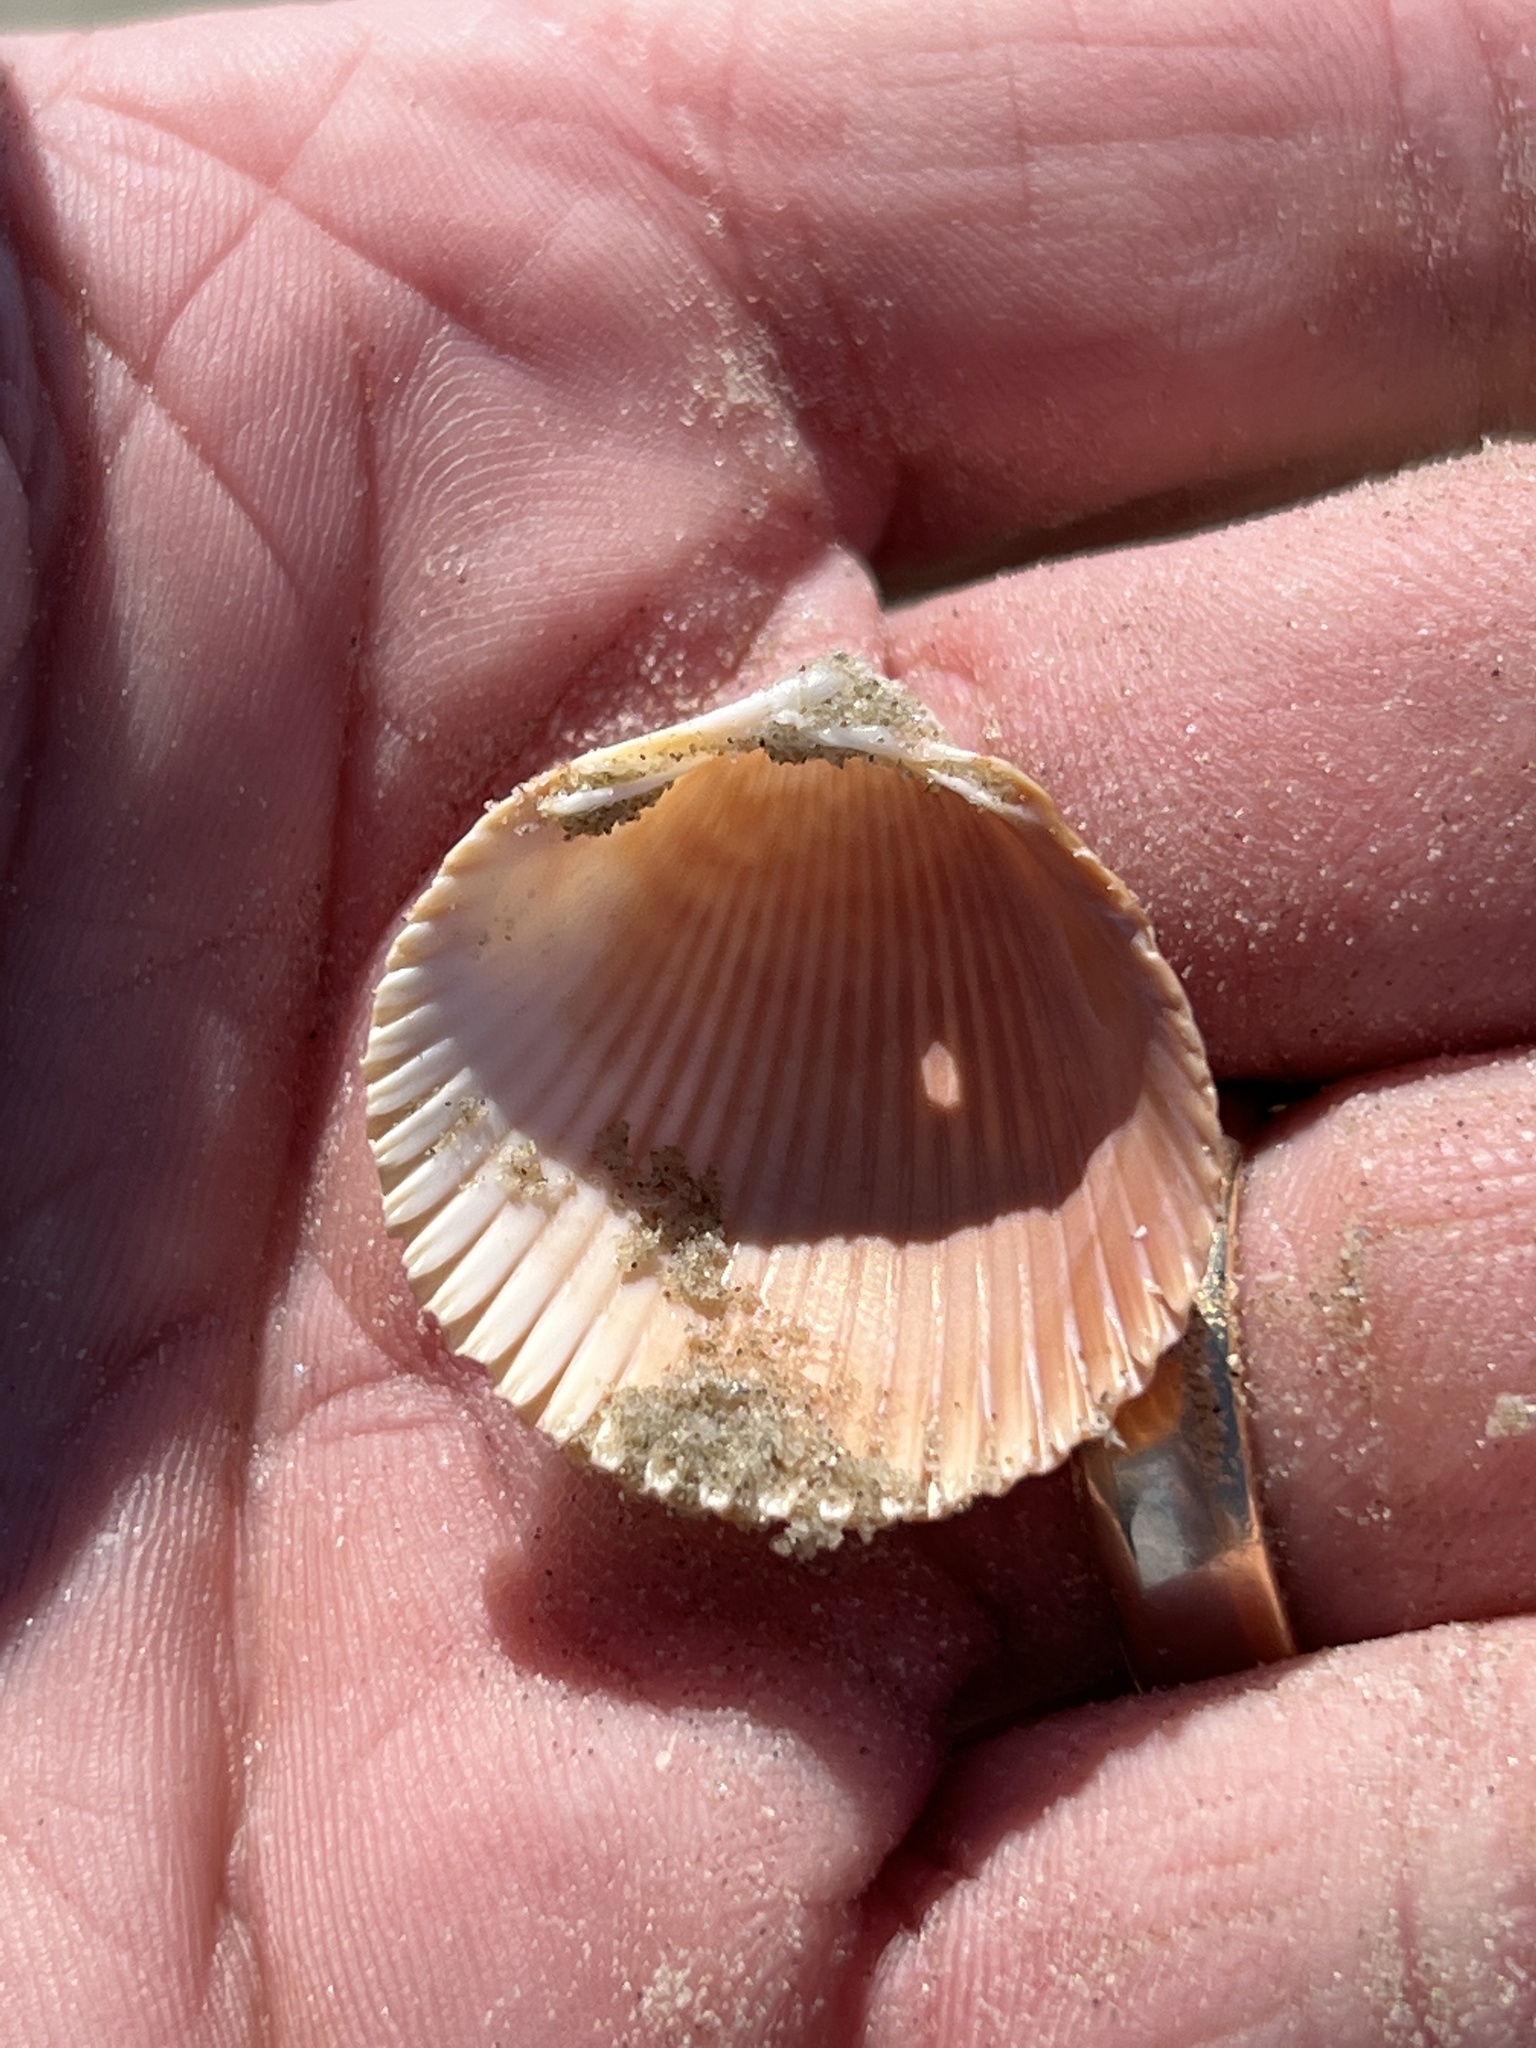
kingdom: Animalia
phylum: Mollusca
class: Bivalvia
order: Cardiida
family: Cardiidae
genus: Dinocardium
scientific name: Dinocardium robustum
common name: Atlantic giant cockle
